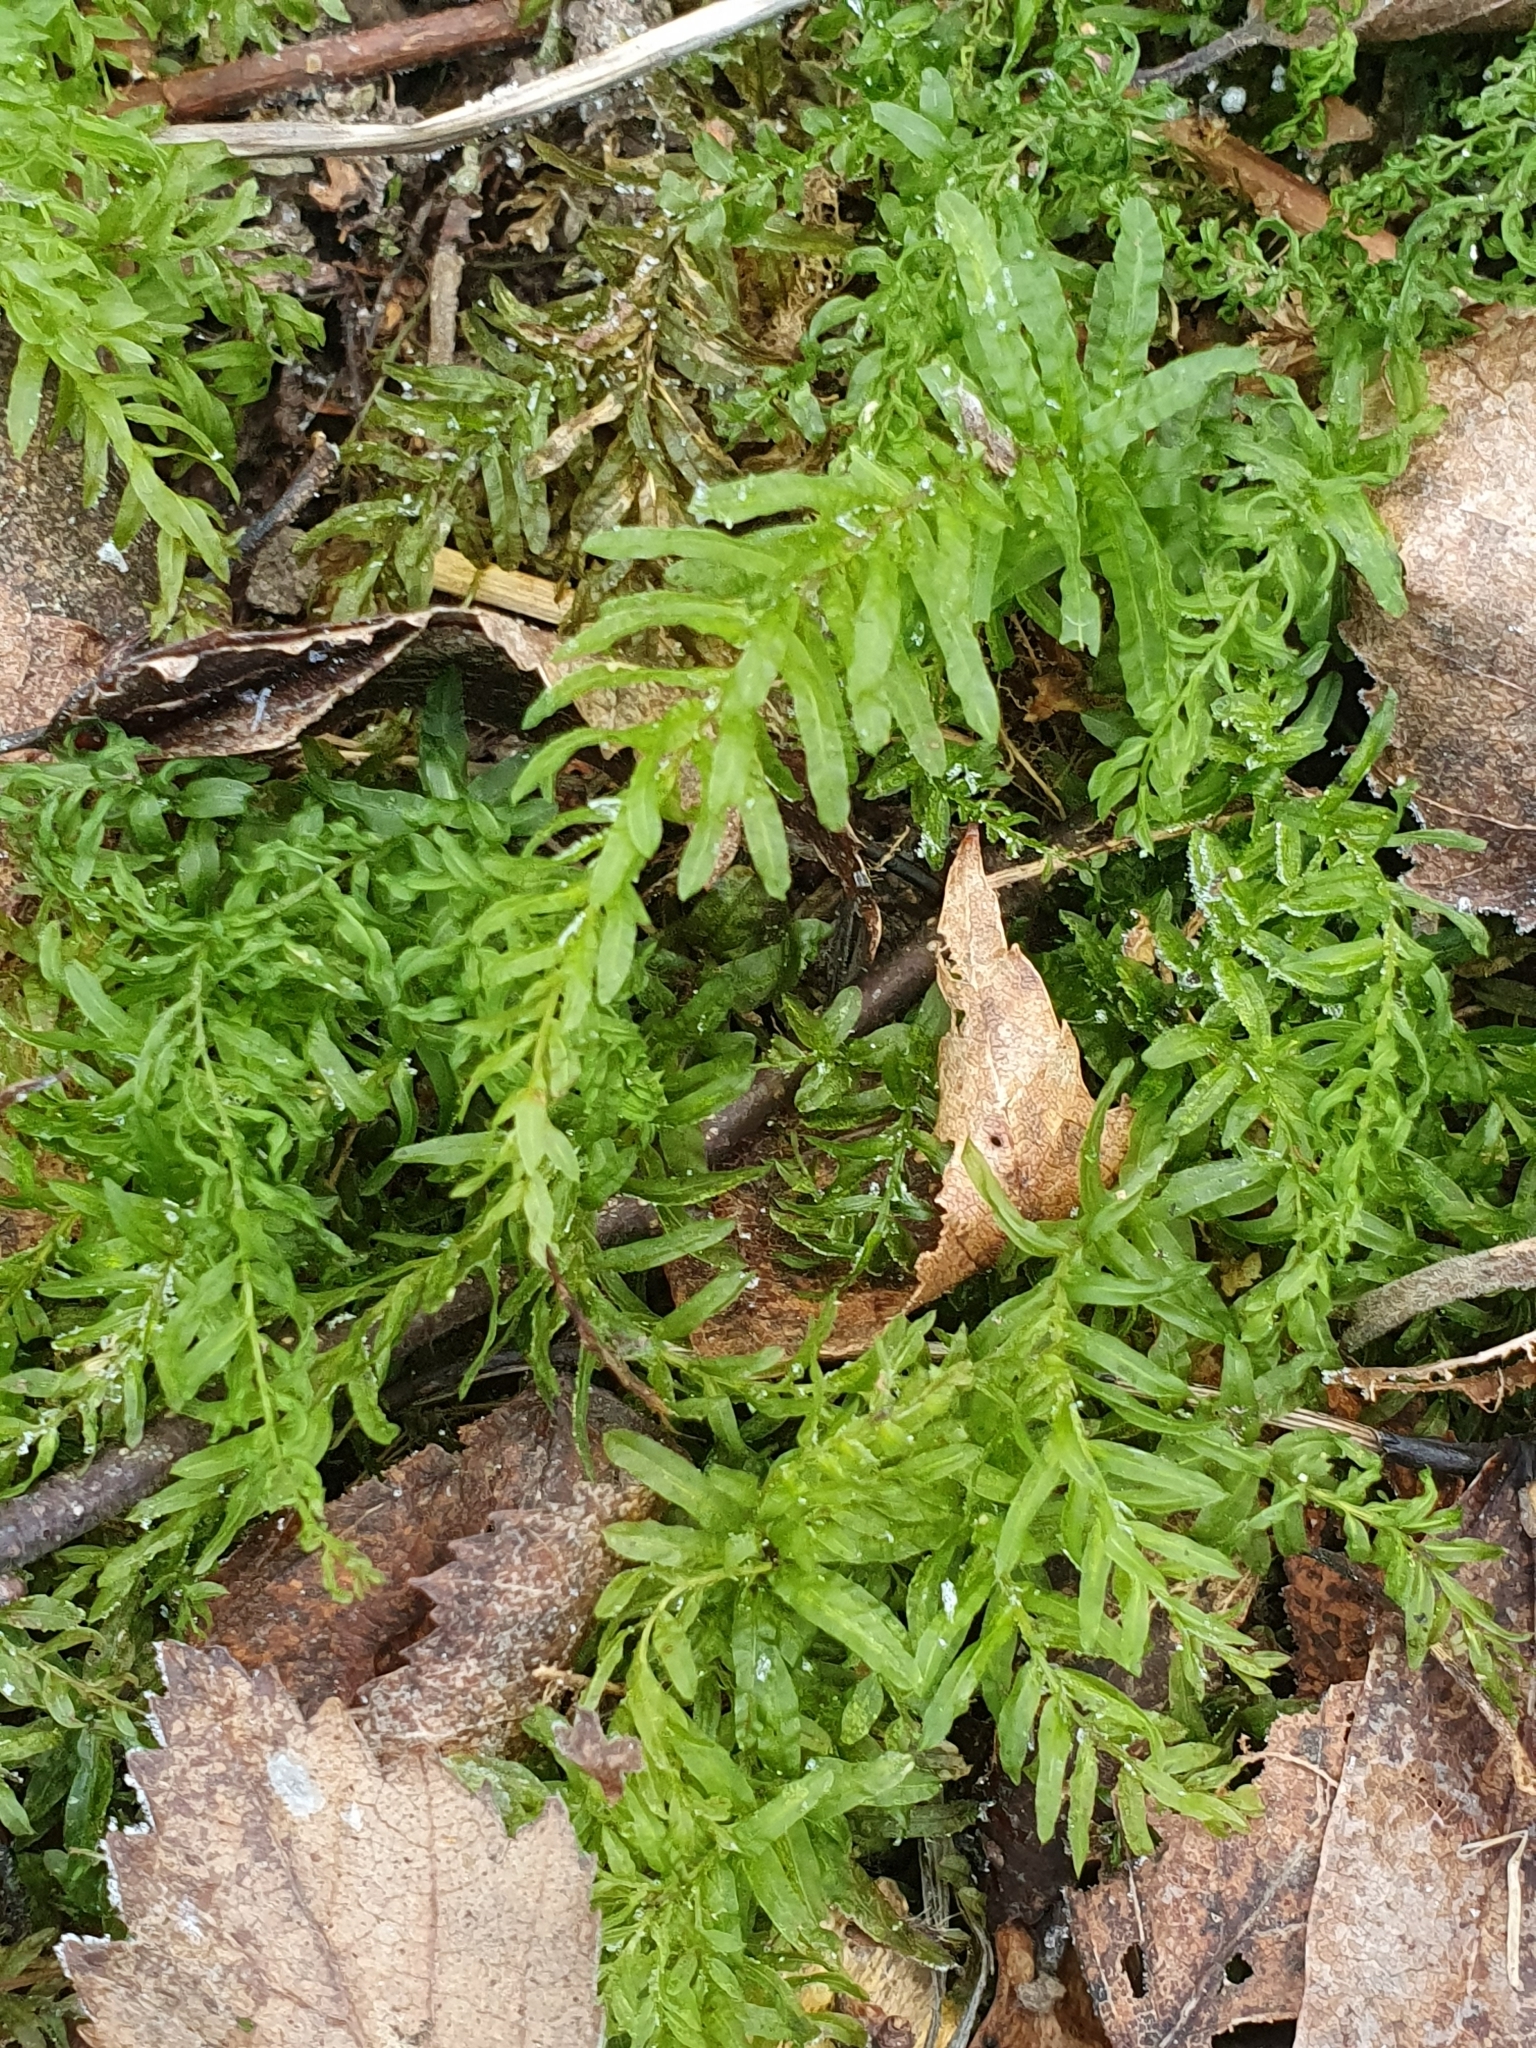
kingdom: Plantae
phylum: Bryophyta
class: Bryopsida
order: Bryales
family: Mniaceae
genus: Plagiomnium
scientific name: Plagiomnium undulatum
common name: Hart's-tongue thyme-moss
